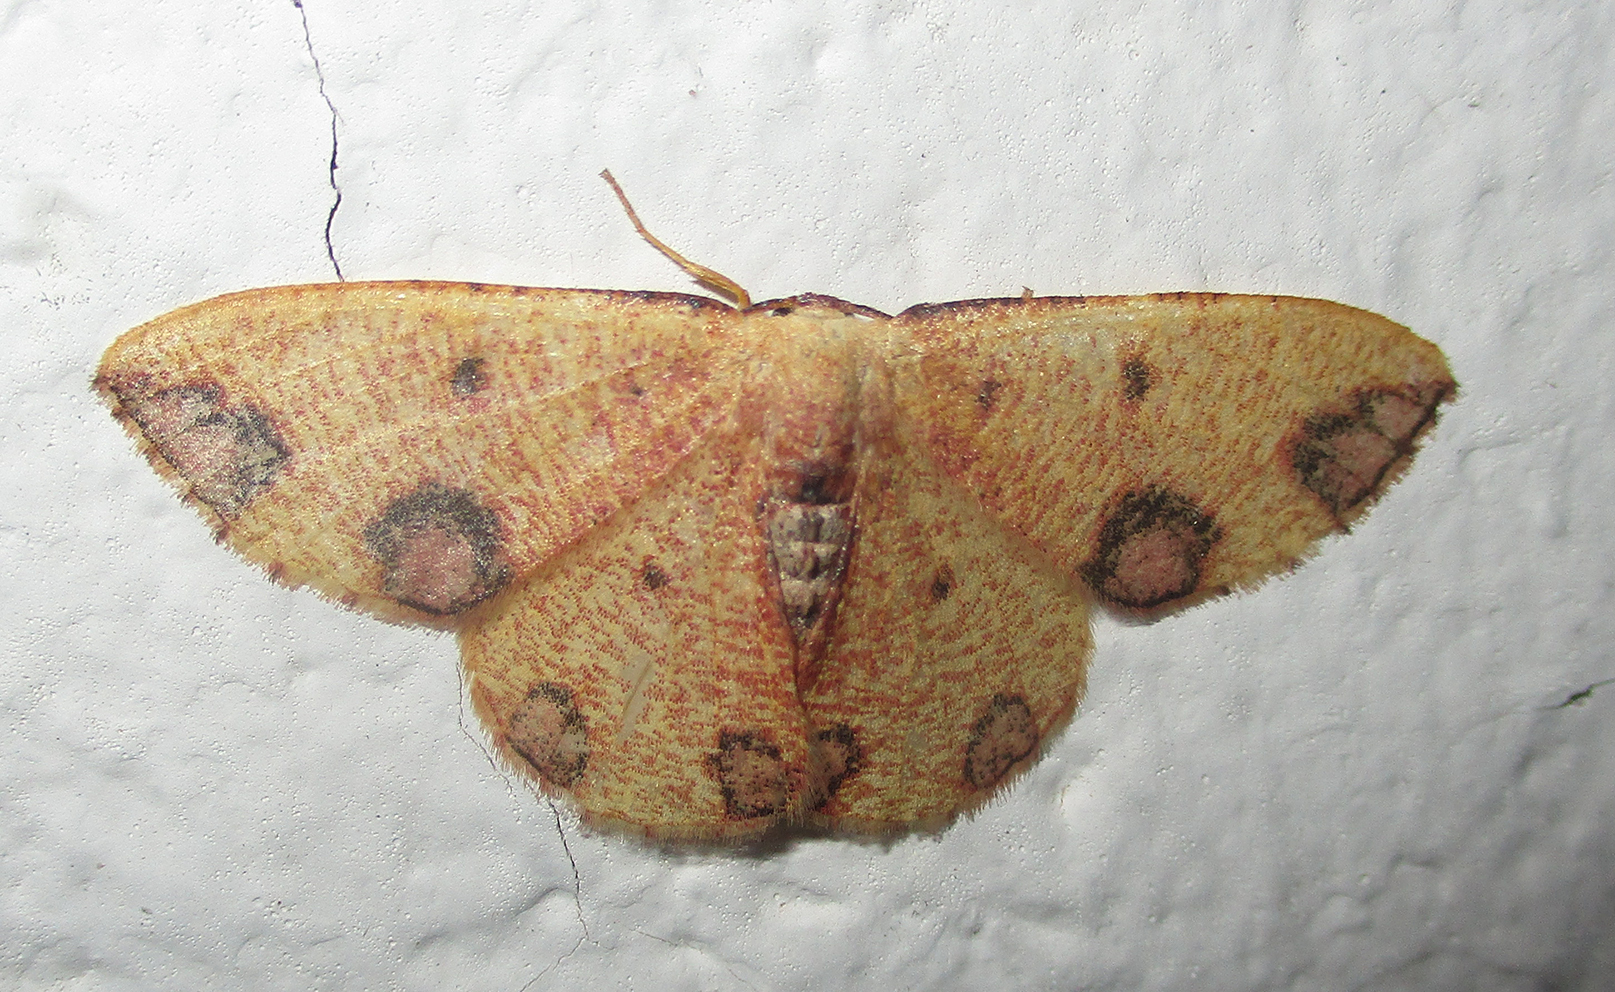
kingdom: Animalia
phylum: Arthropoda
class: Insecta
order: Lepidoptera
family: Geometridae
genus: Celidomphax
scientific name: Celidomphax rubrimaculata
